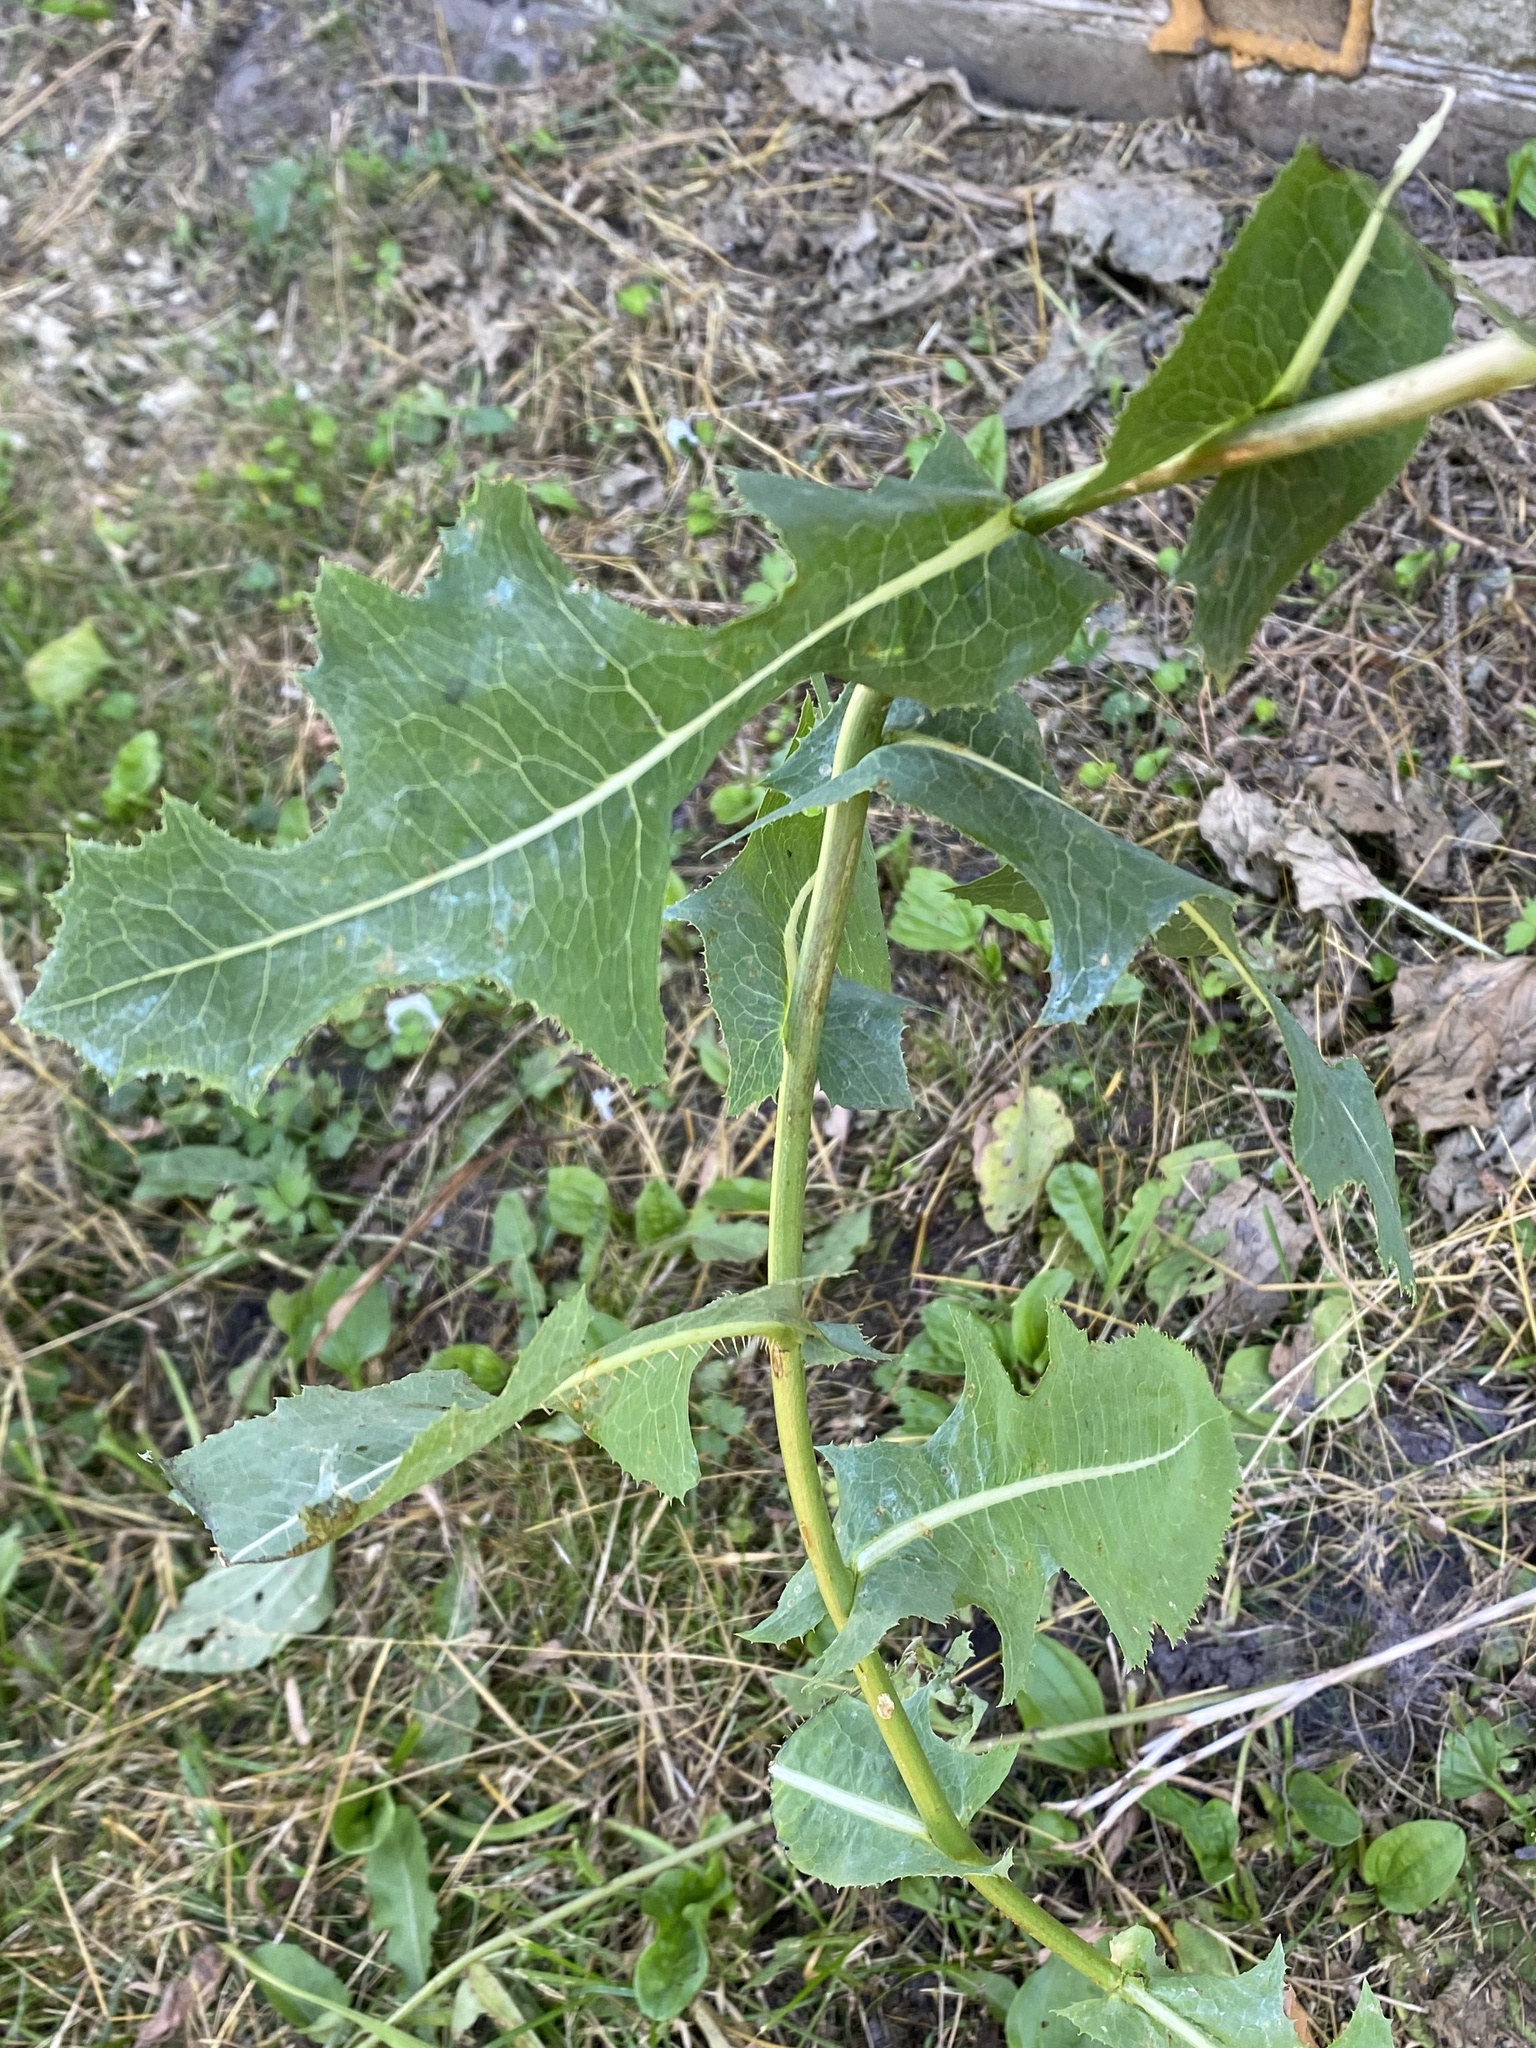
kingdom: Plantae
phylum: Tracheophyta
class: Magnoliopsida
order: Asterales
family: Asteraceae
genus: Lactuca
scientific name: Lactuca serriola
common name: Prickly lettuce
